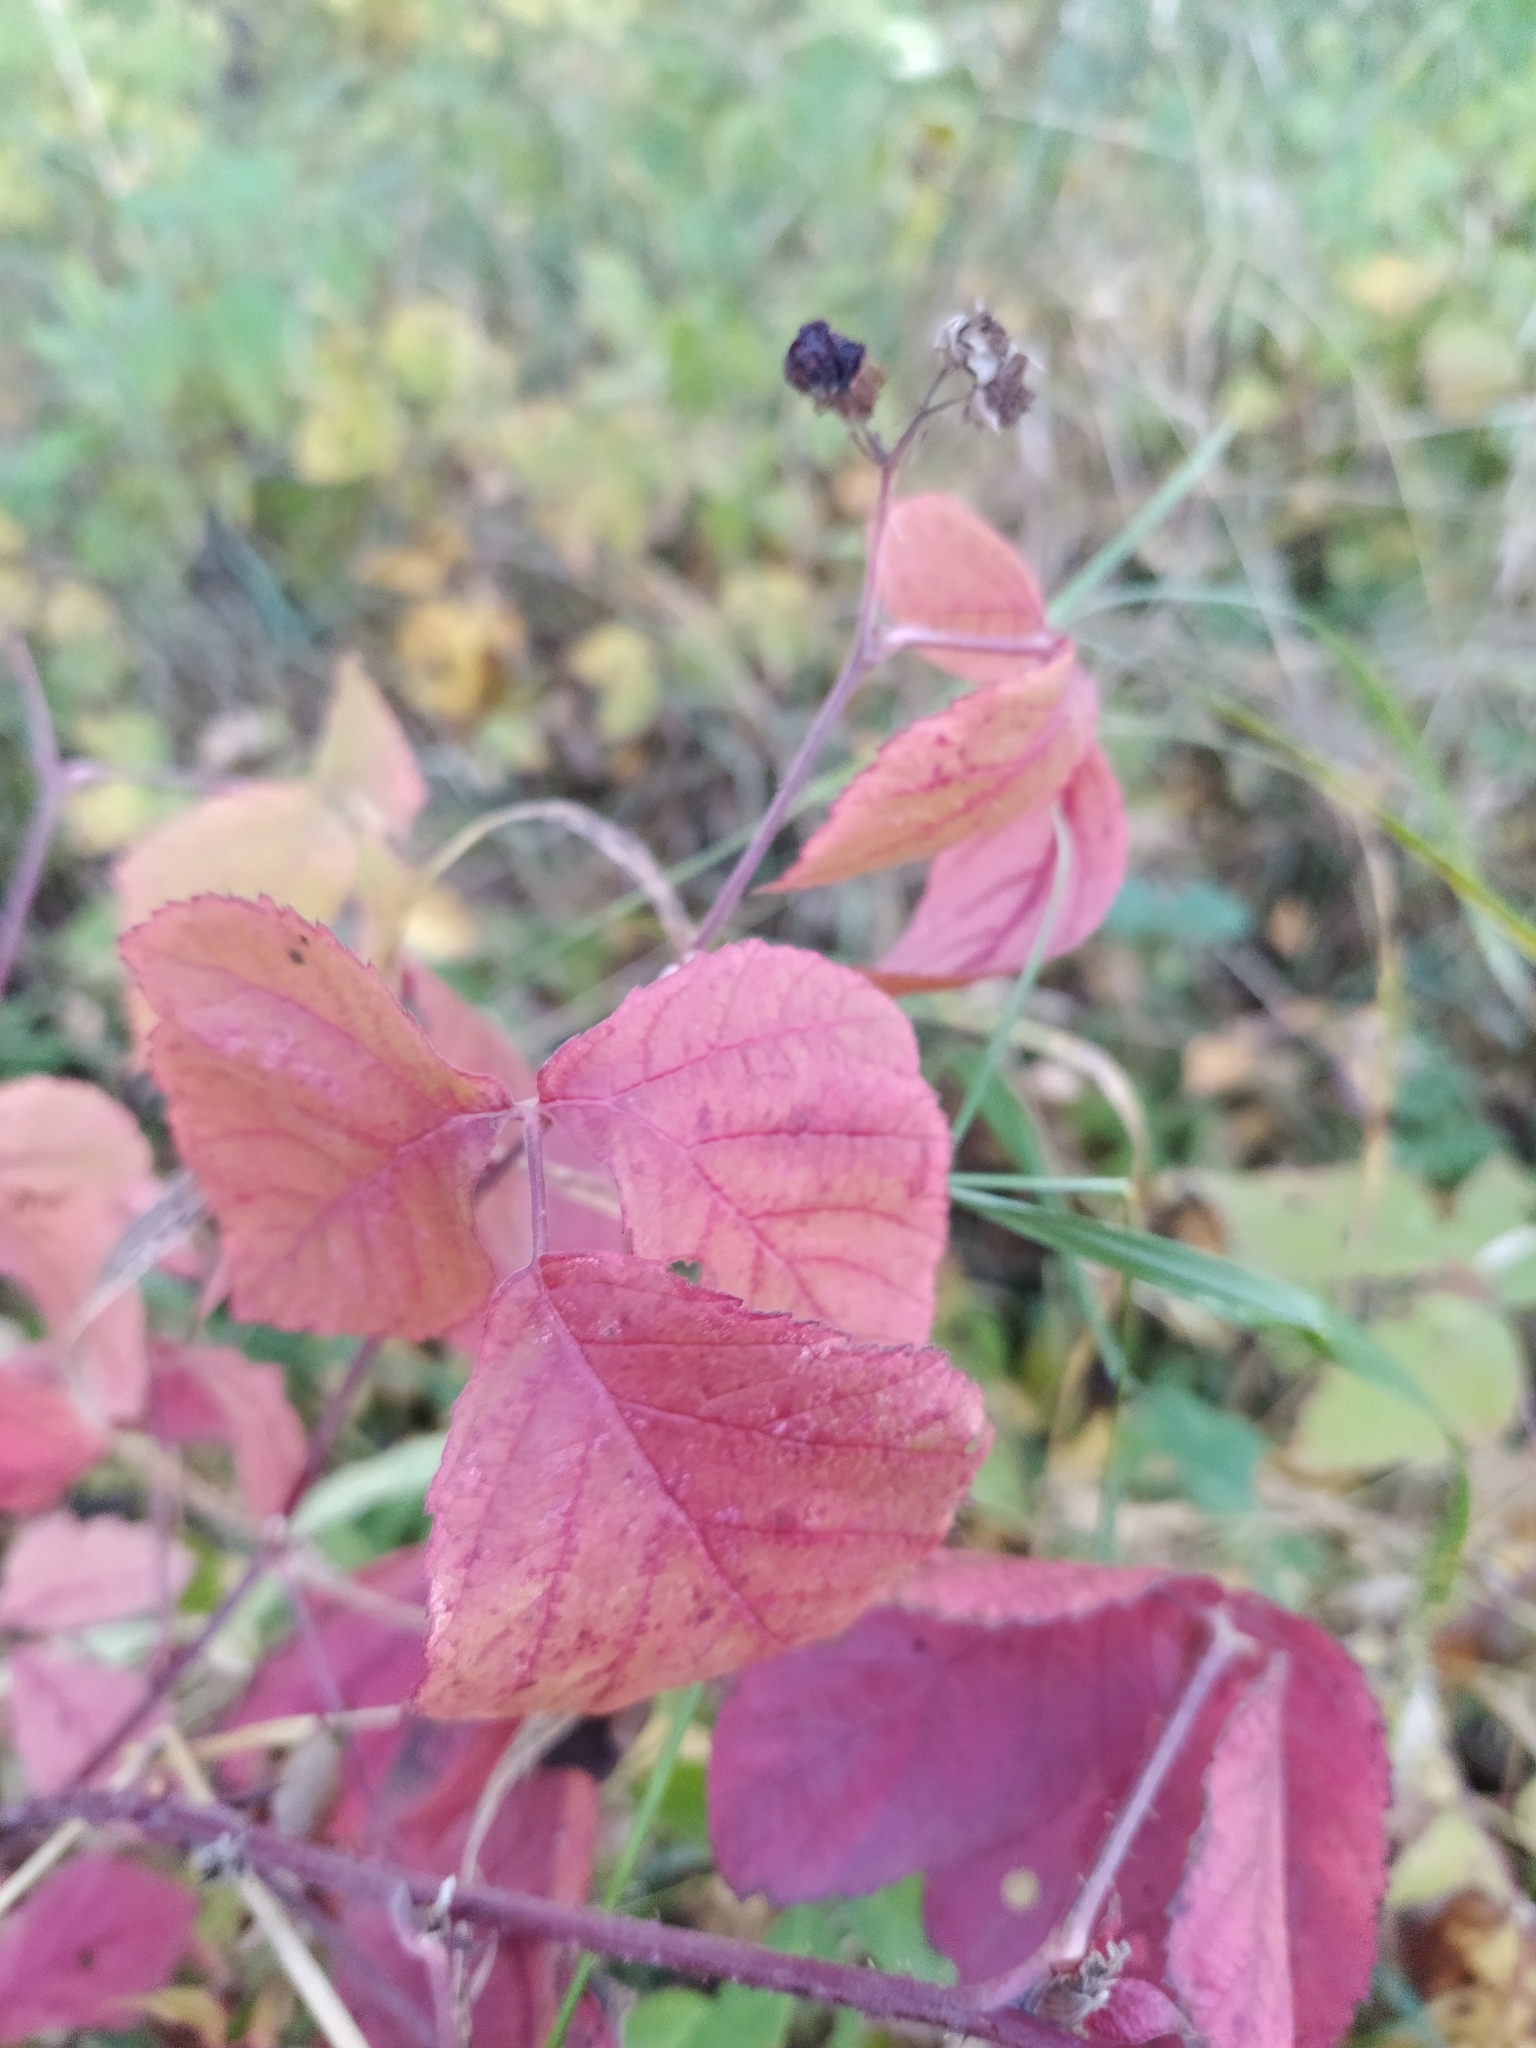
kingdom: Plantae
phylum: Tracheophyta
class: Magnoliopsida
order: Rosales
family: Rosaceae
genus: Rubus
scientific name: Rubus caesius
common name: Dewberry
